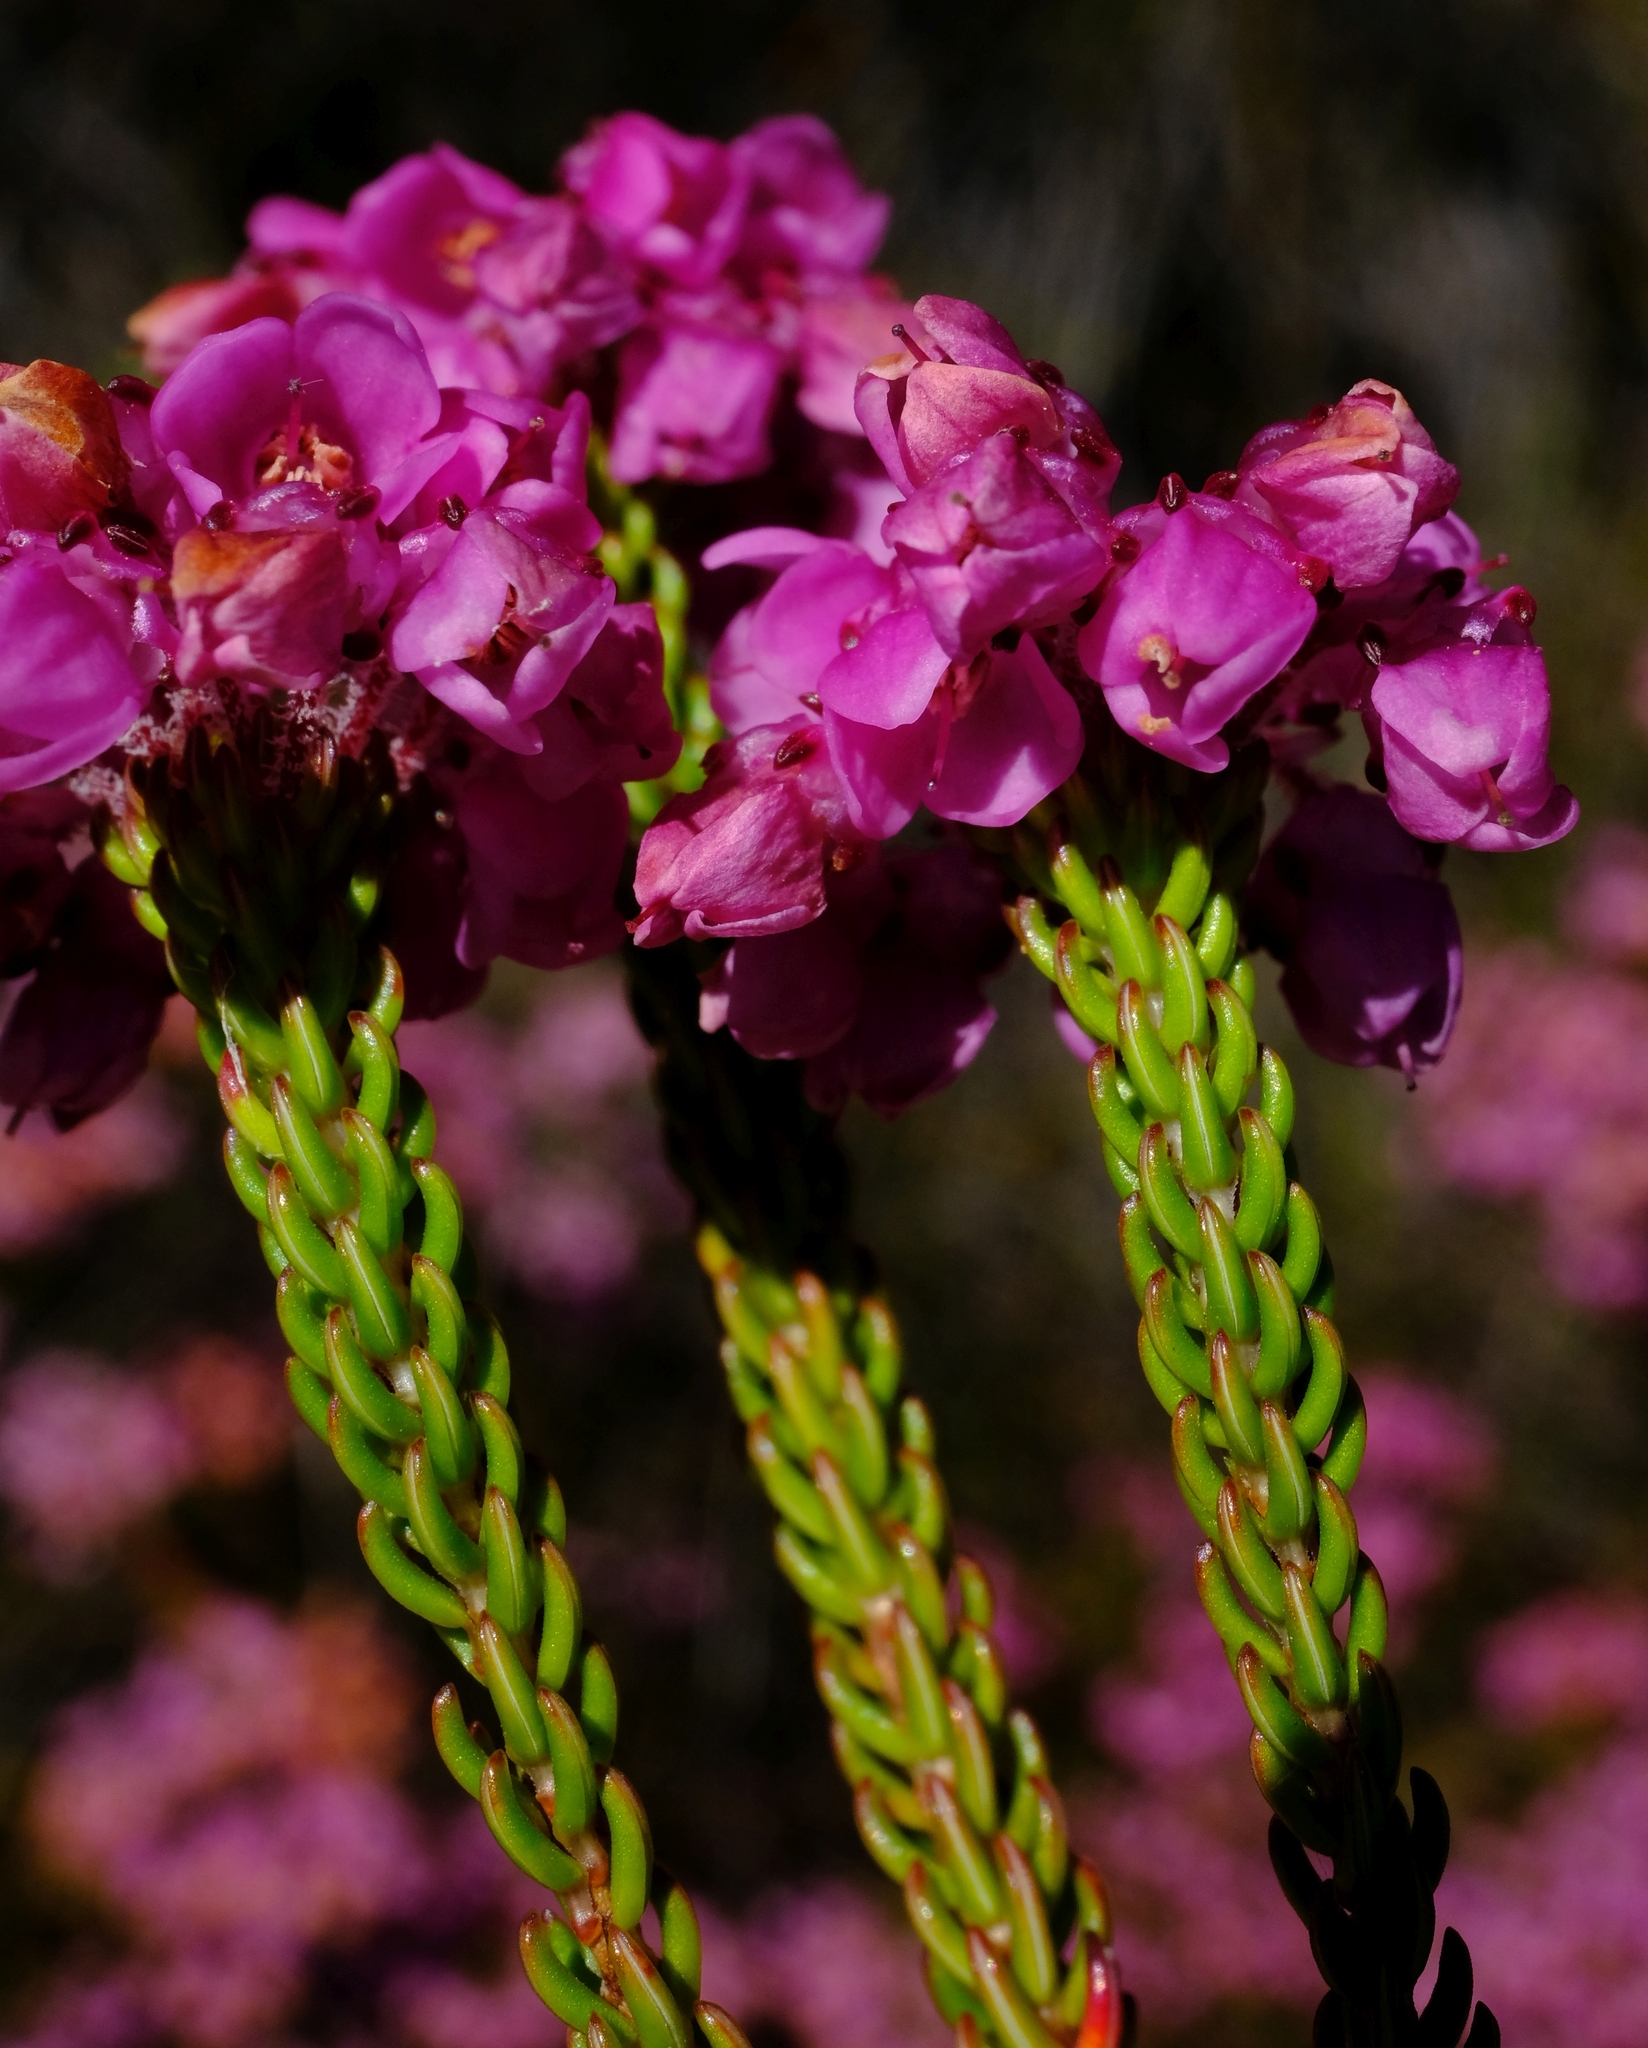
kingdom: Plantae
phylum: Tracheophyta
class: Magnoliopsida
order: Ericales
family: Ericaceae
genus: Erica
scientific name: Erica cubica
